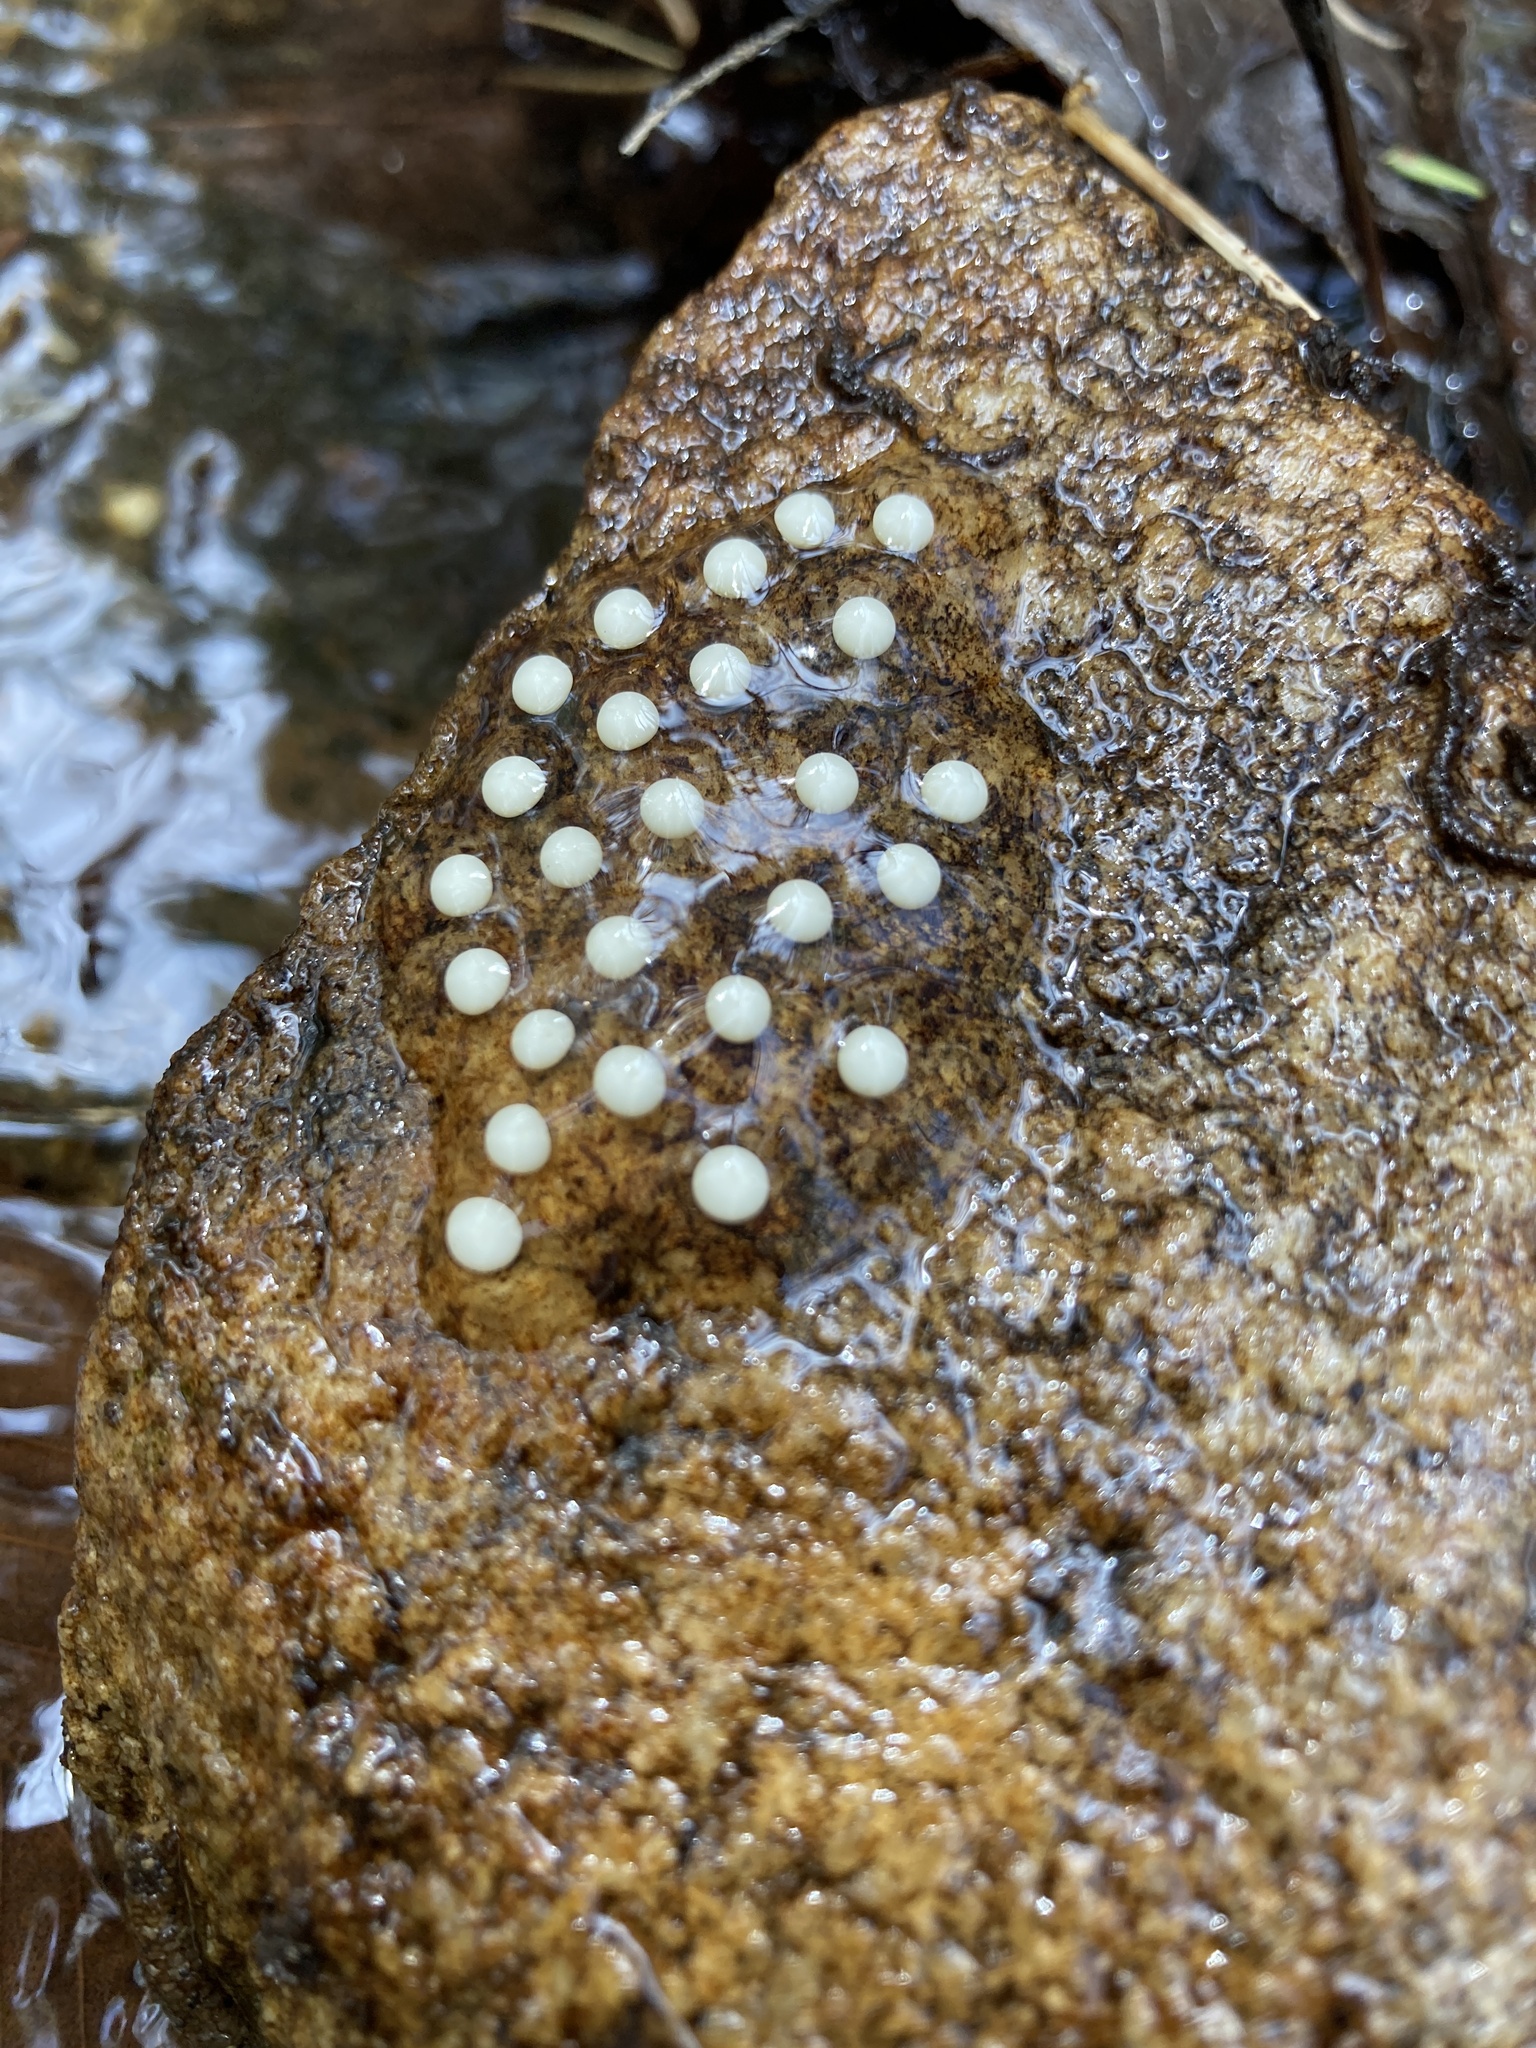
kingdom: Animalia
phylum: Chordata
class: Amphibia
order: Caudata
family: Plethodontidae
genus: Eurycea
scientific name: Eurycea bislineata
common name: Northern two-lined salamander
